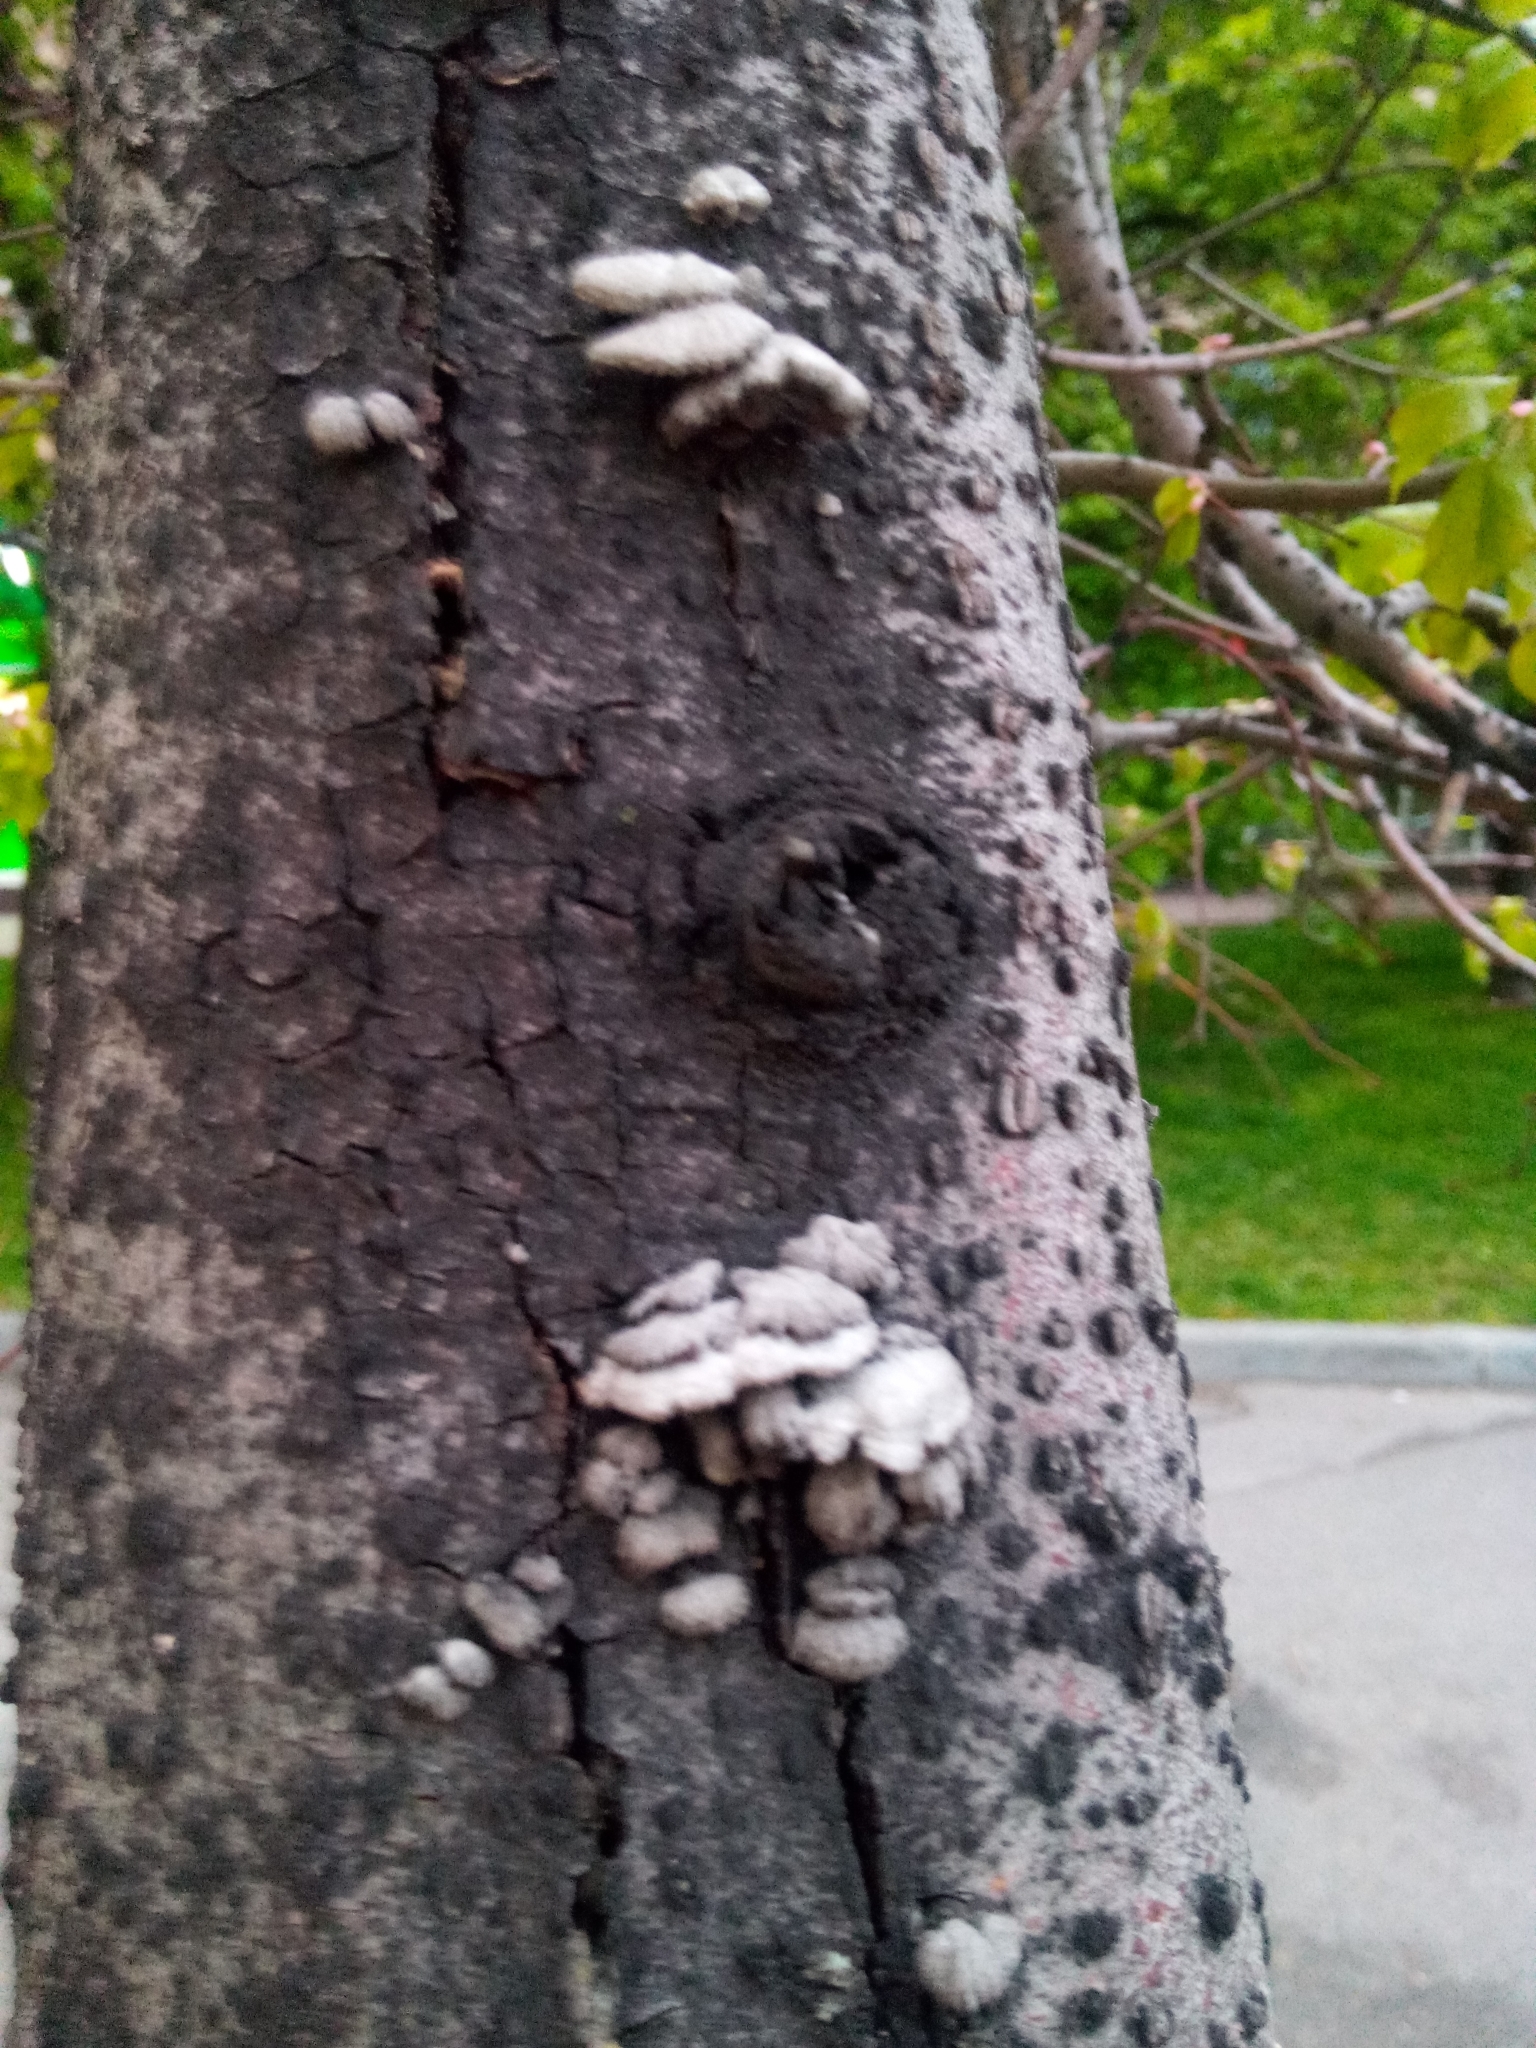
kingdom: Fungi
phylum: Basidiomycota
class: Agaricomycetes
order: Agaricales
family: Schizophyllaceae
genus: Schizophyllum
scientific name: Schizophyllum commune
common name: Common porecrust
